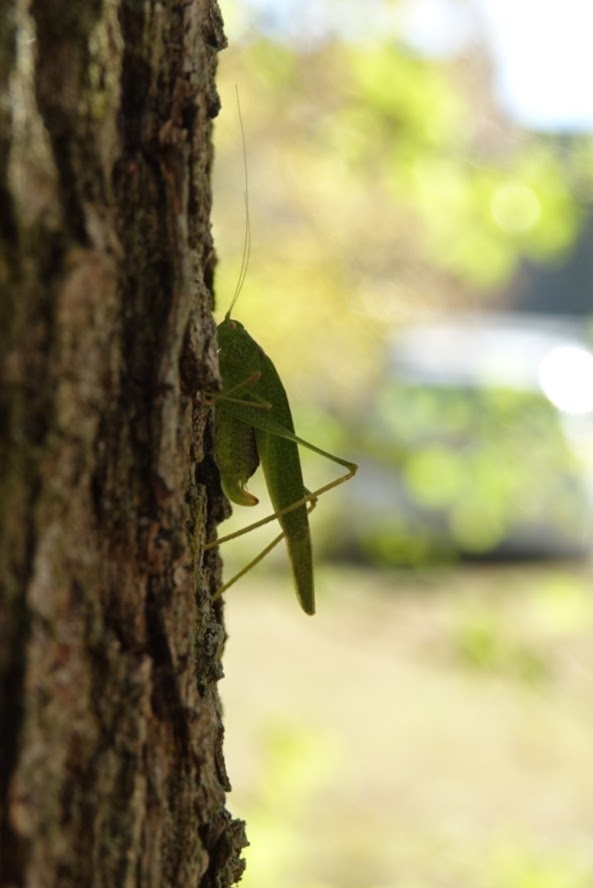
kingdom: Animalia
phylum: Arthropoda
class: Insecta
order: Orthoptera
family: Tettigoniidae
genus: Phaneroptera
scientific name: Phaneroptera nana
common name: Southern sickle bush-cricket
